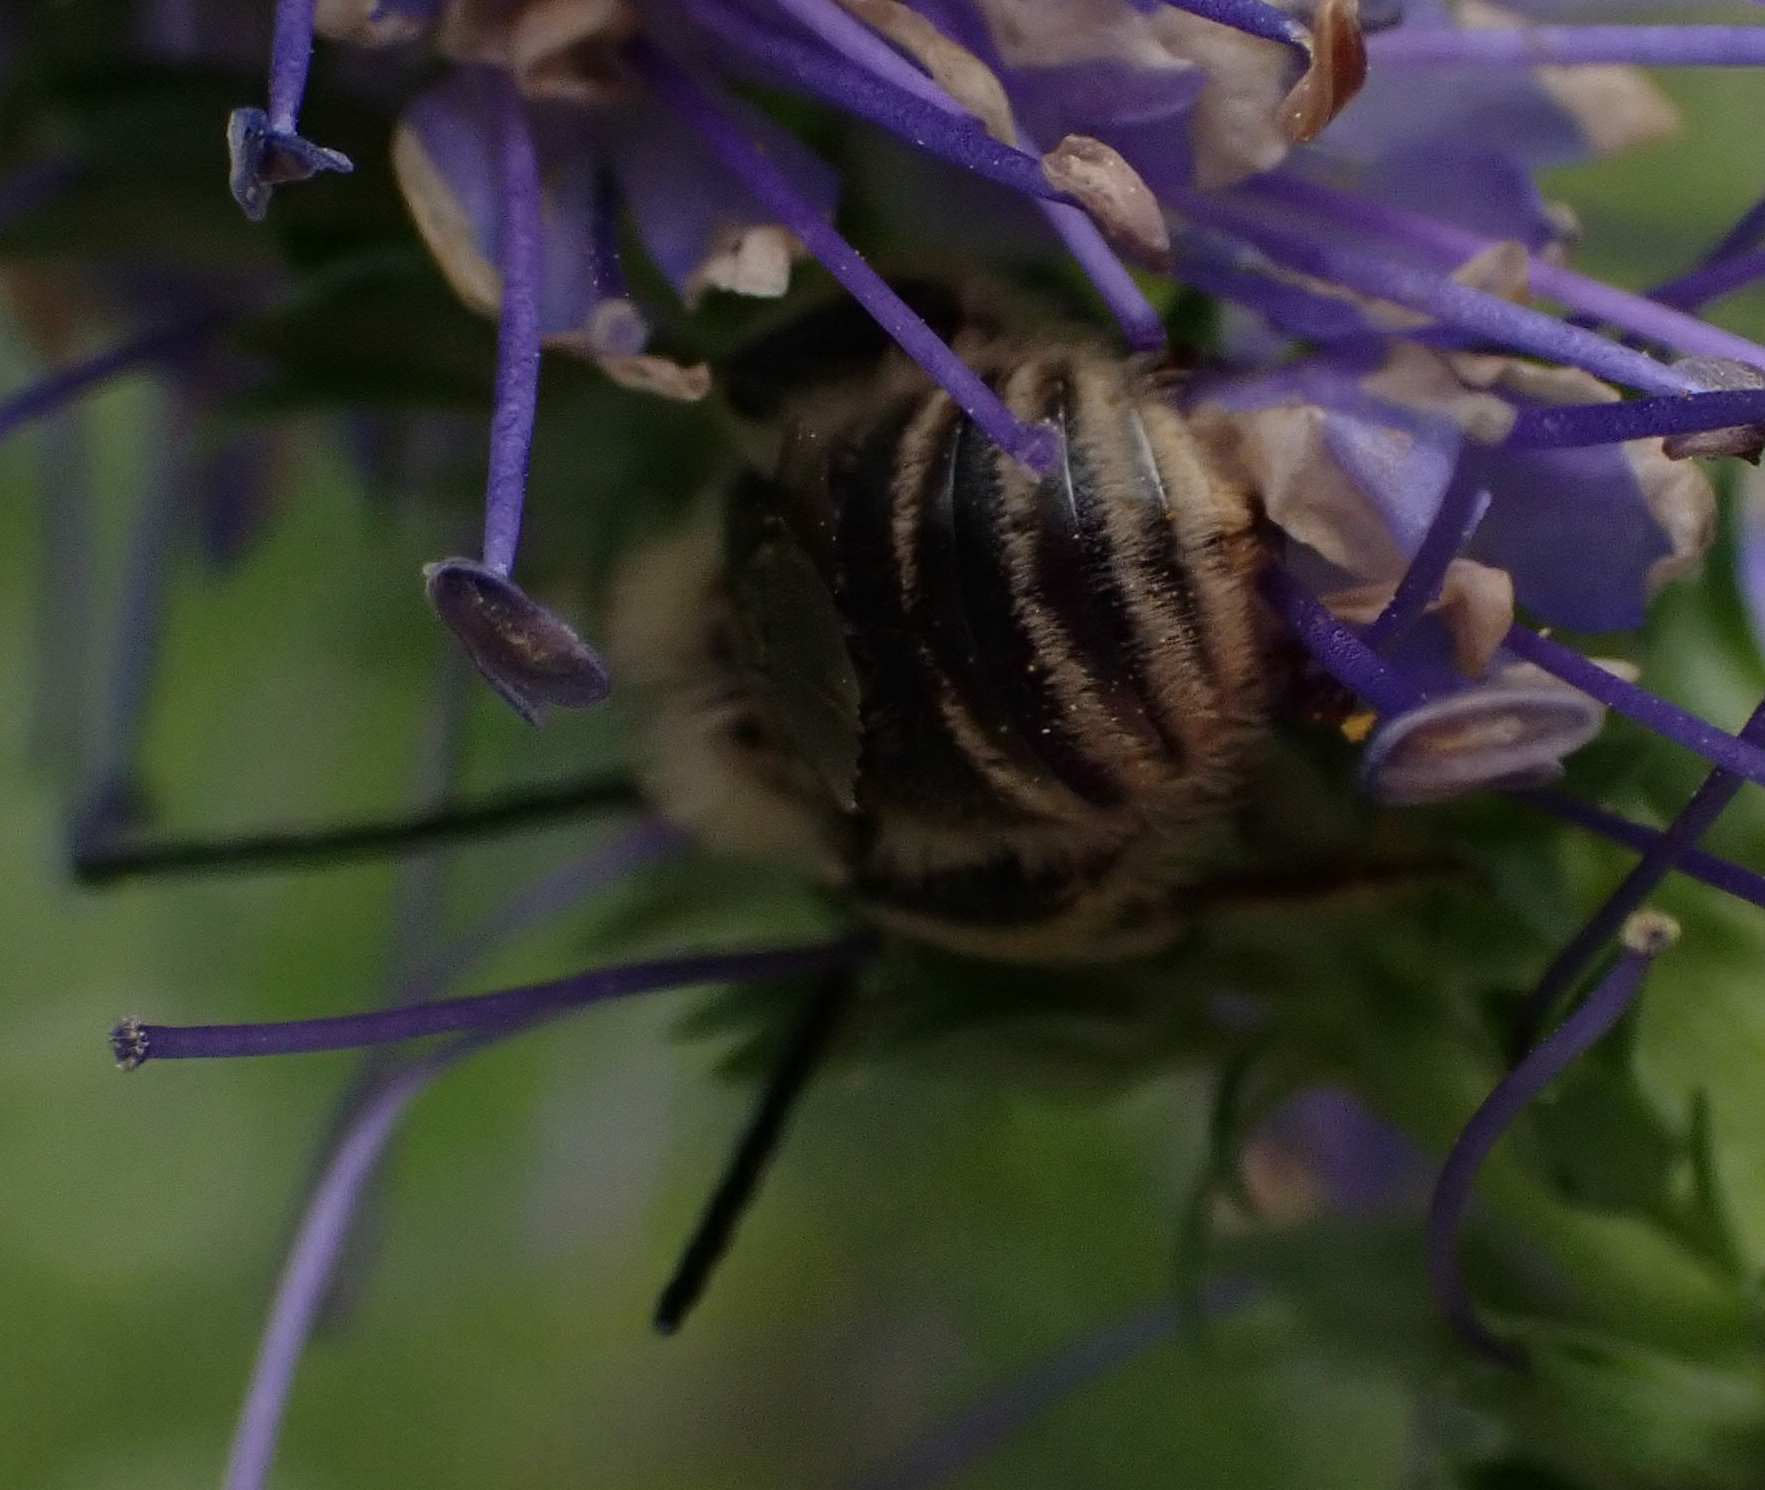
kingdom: Animalia
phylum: Arthropoda
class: Insecta
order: Hymenoptera
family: Apidae
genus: Melissodes
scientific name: Melissodes confusus
